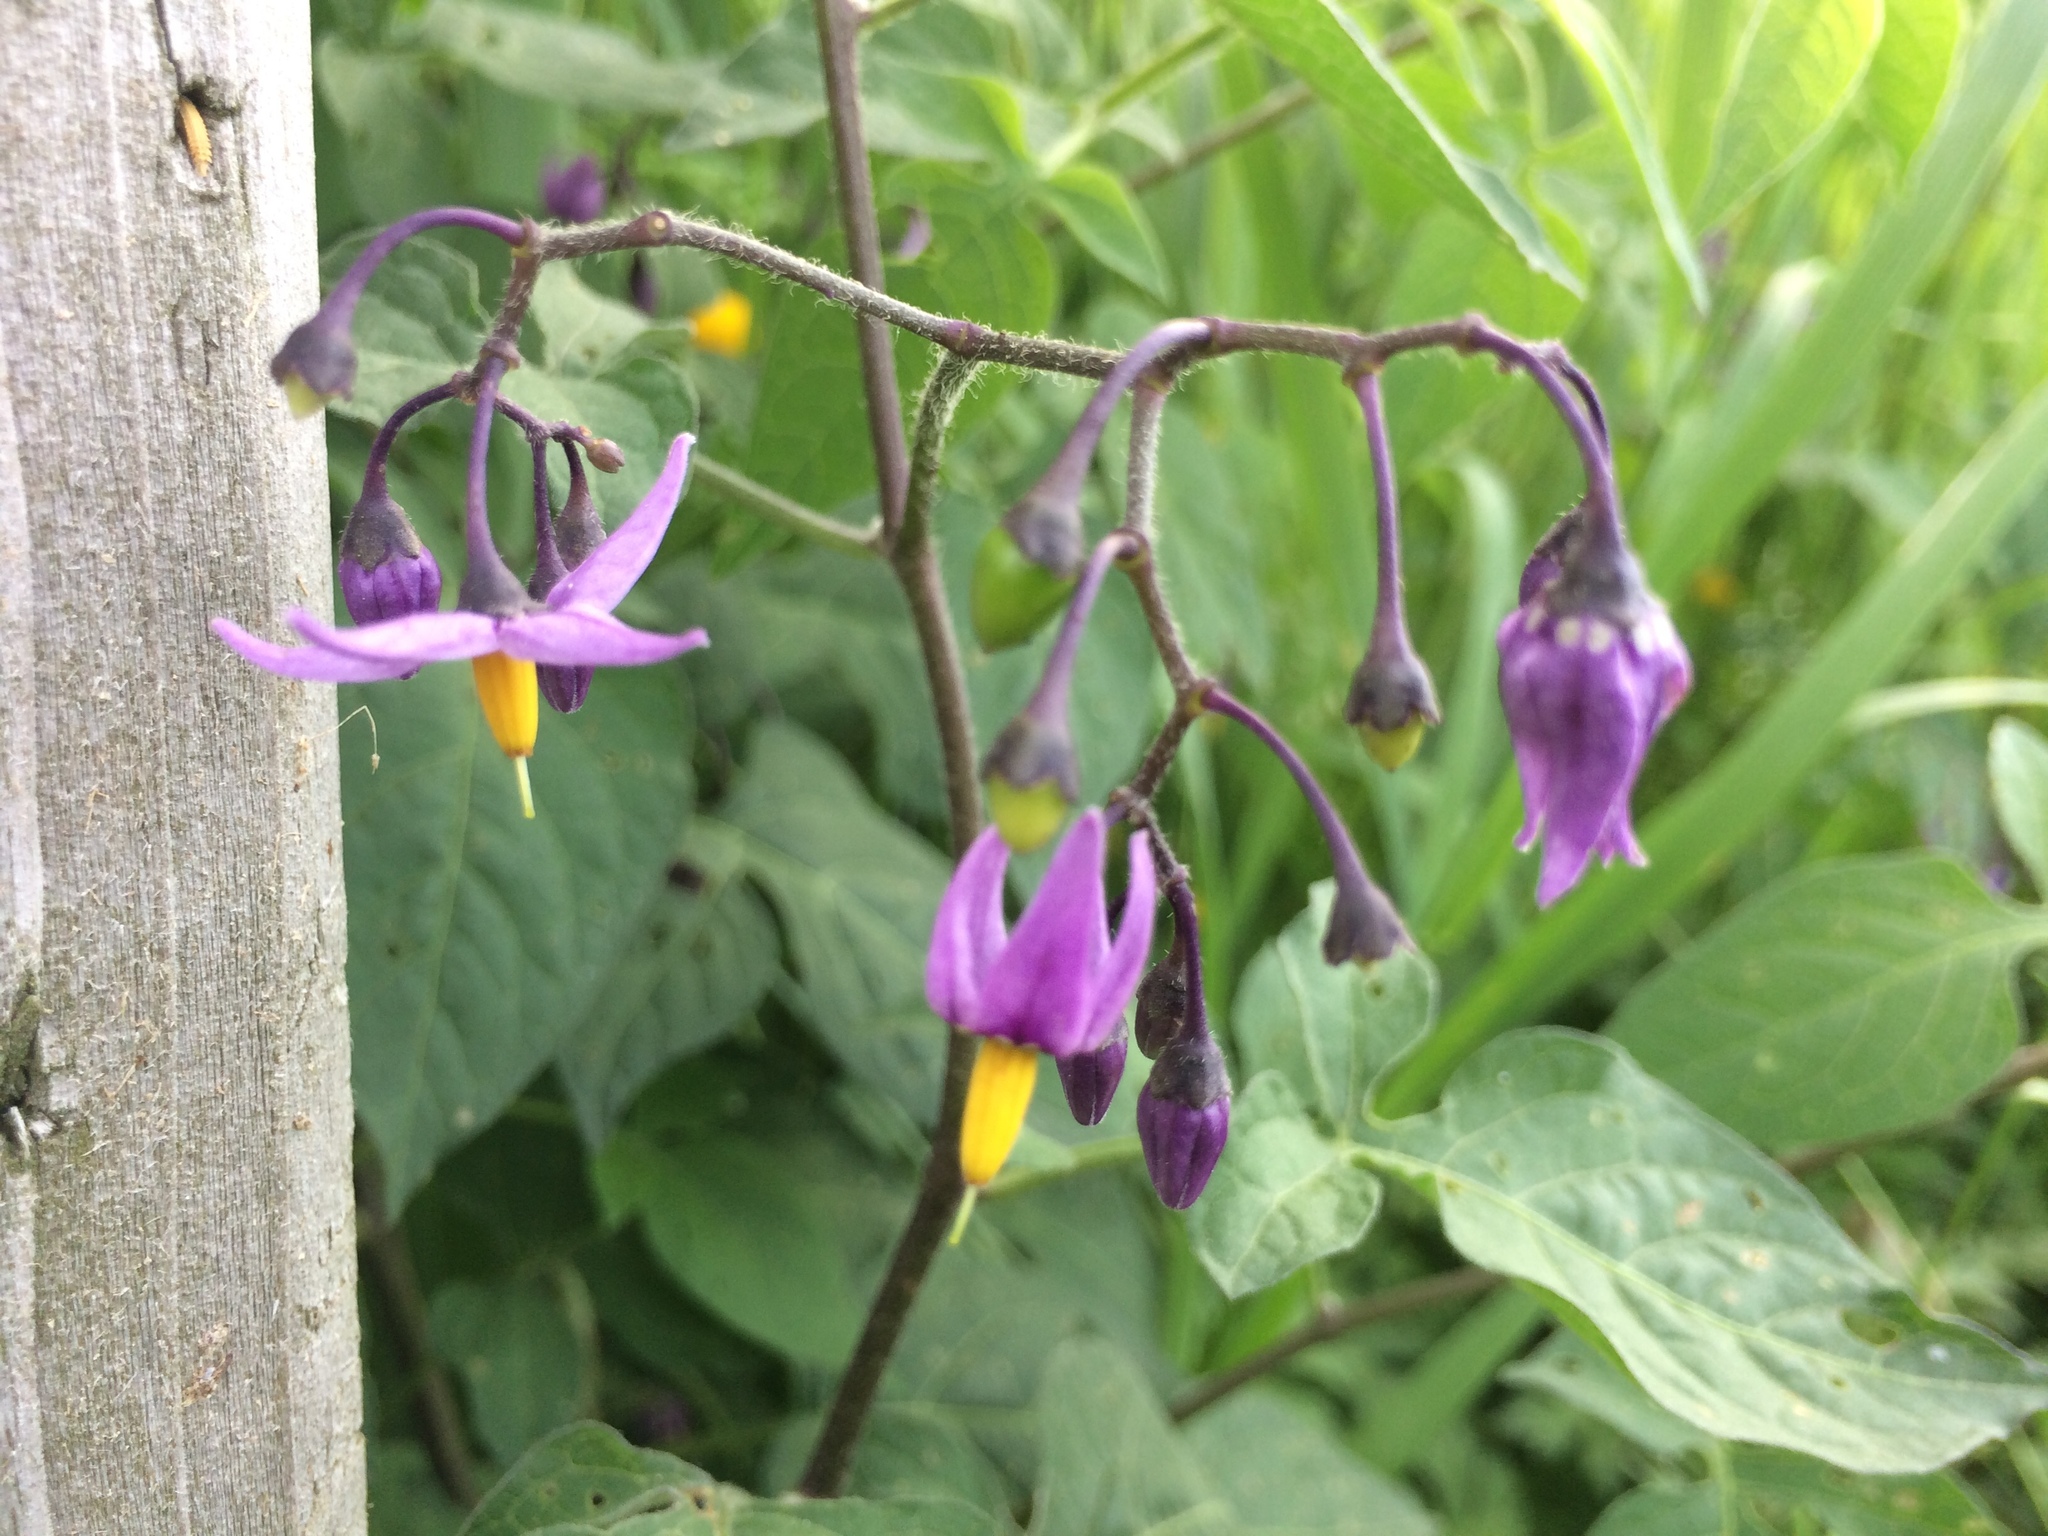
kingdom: Plantae
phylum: Tracheophyta
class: Magnoliopsida
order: Solanales
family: Solanaceae
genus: Solanum
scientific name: Solanum dulcamara
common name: Climbing nightshade
